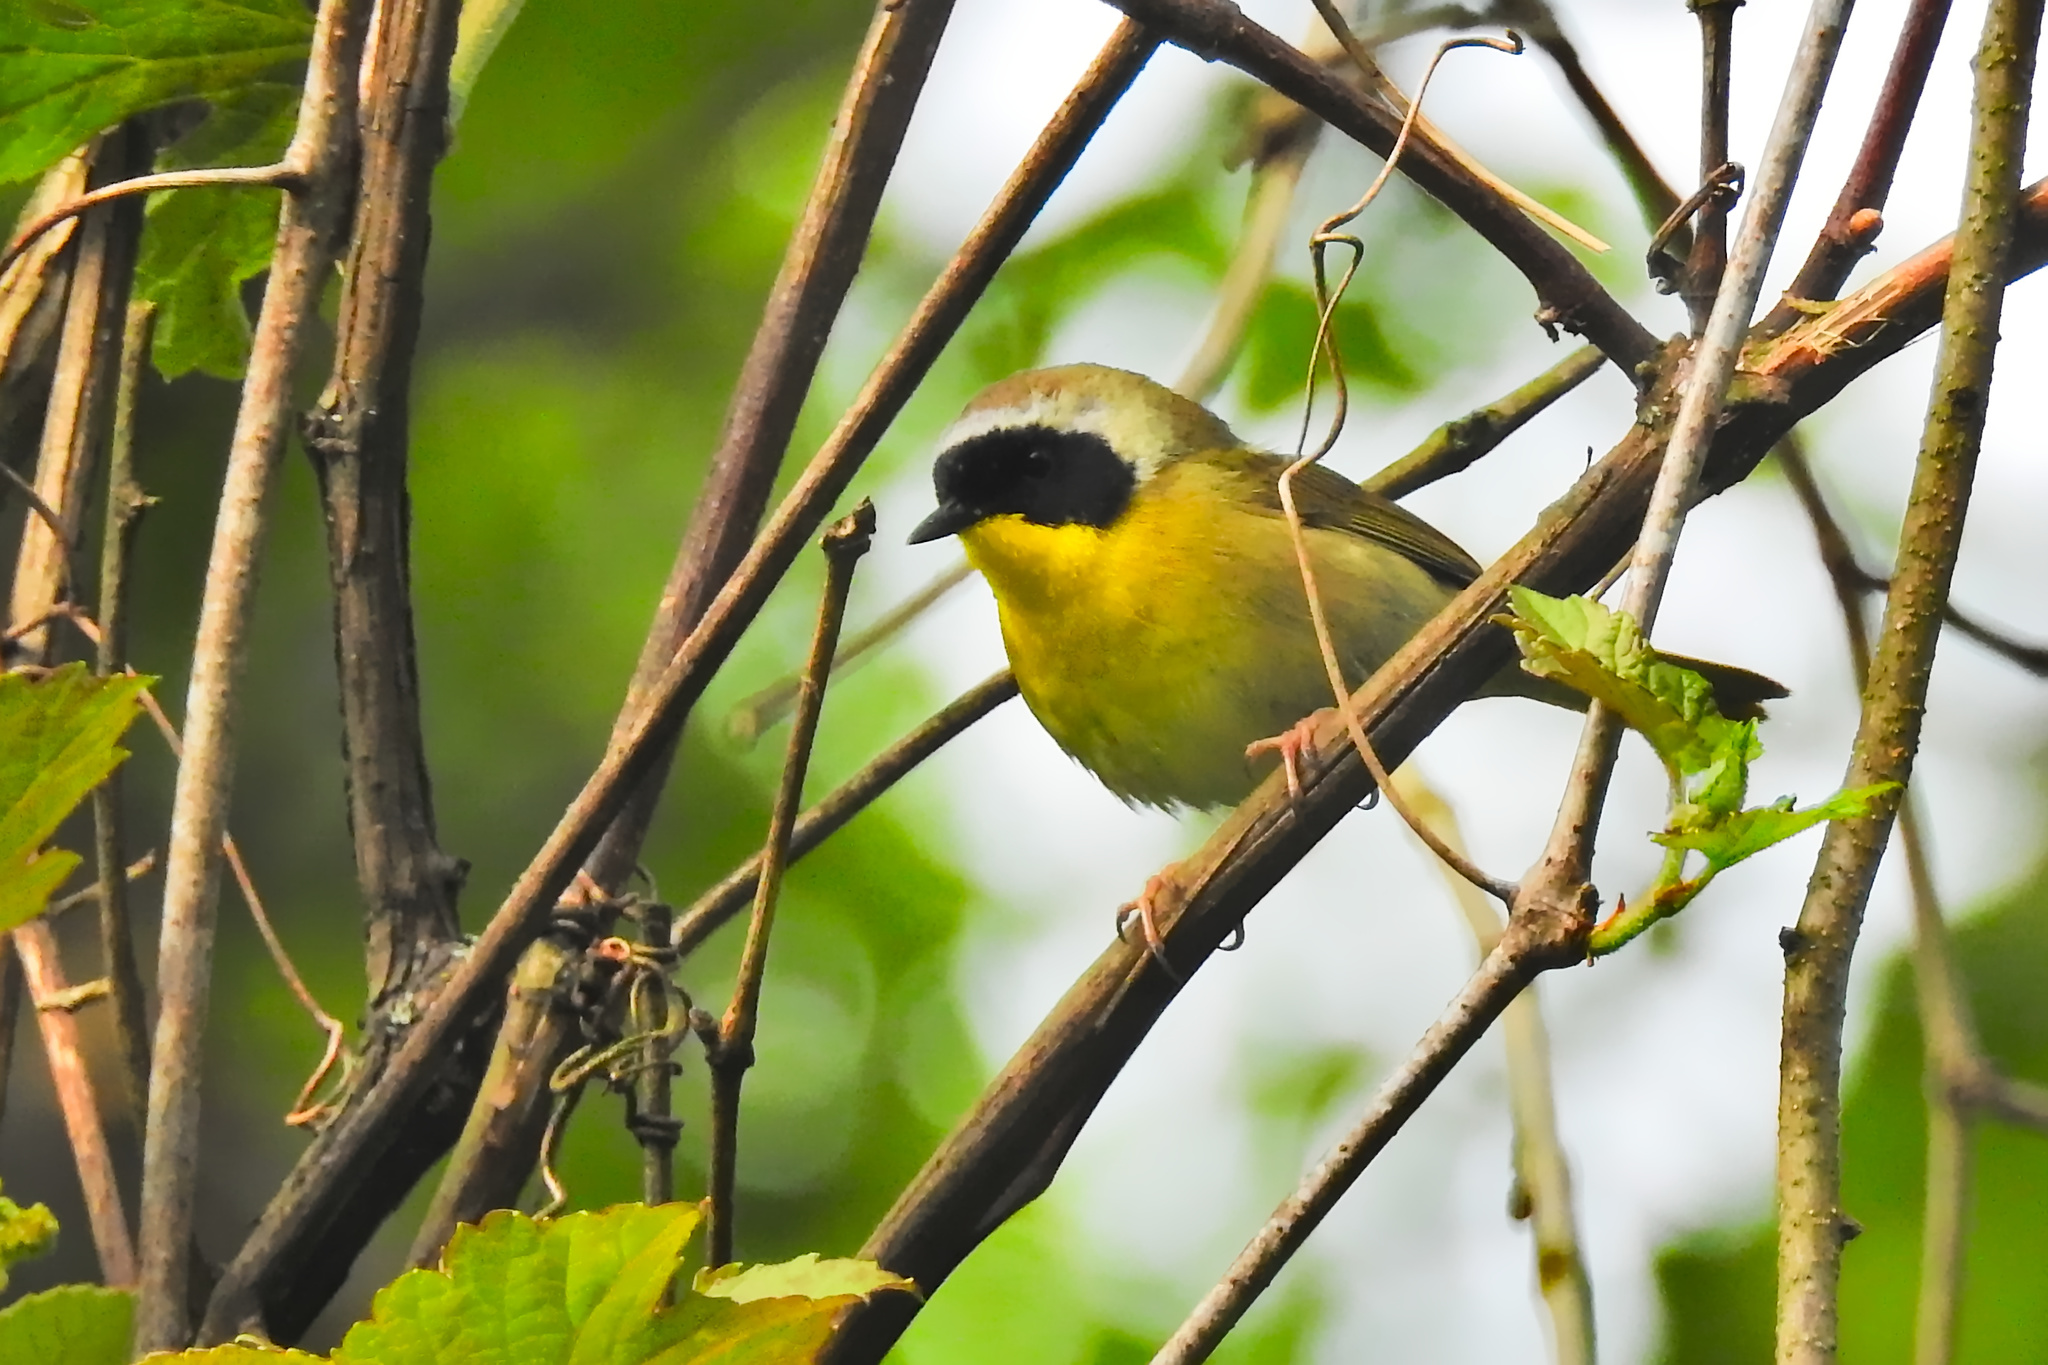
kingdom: Animalia
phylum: Chordata
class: Aves
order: Passeriformes
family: Parulidae
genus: Geothlypis
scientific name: Geothlypis trichas
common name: Common yellowthroat
